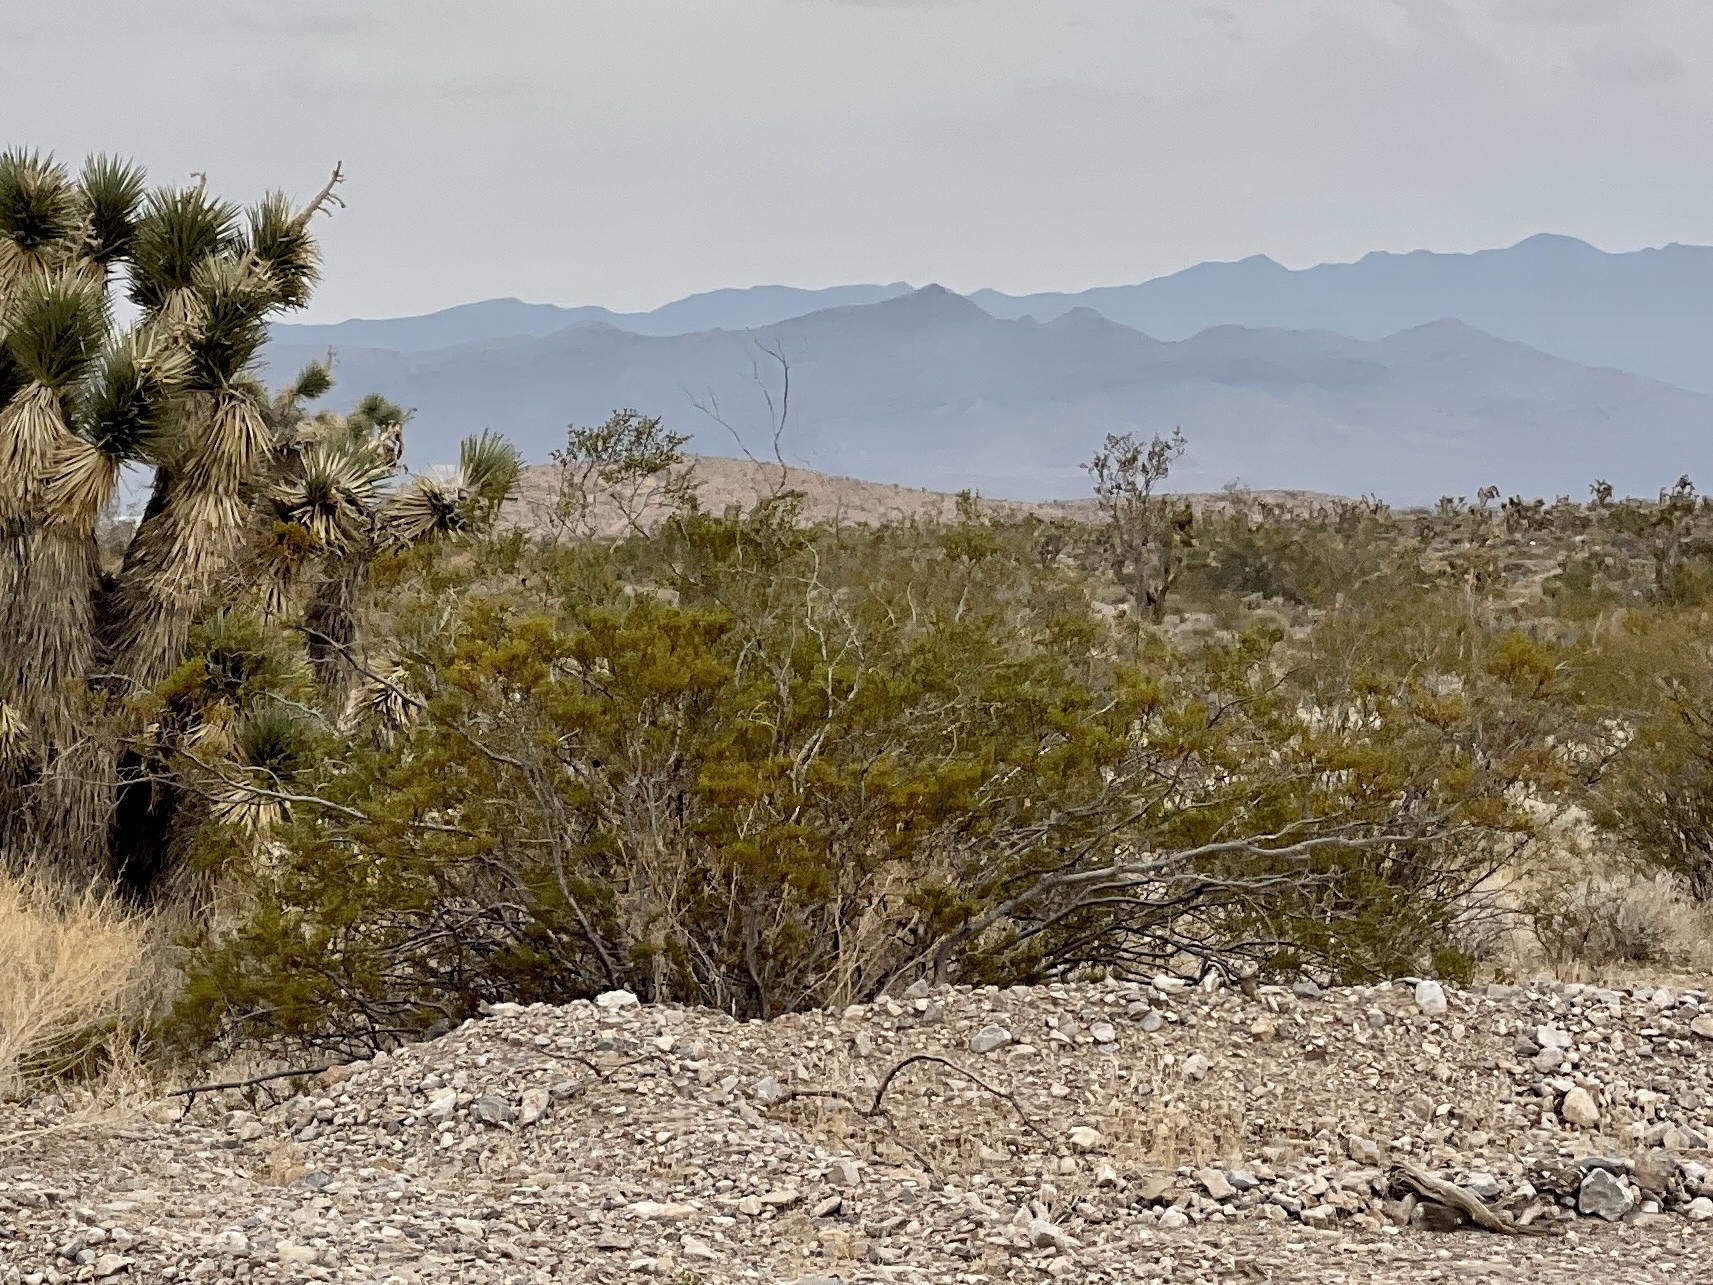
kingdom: Plantae
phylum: Tracheophyta
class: Magnoliopsida
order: Zygophyllales
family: Zygophyllaceae
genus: Larrea
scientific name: Larrea tridentata
